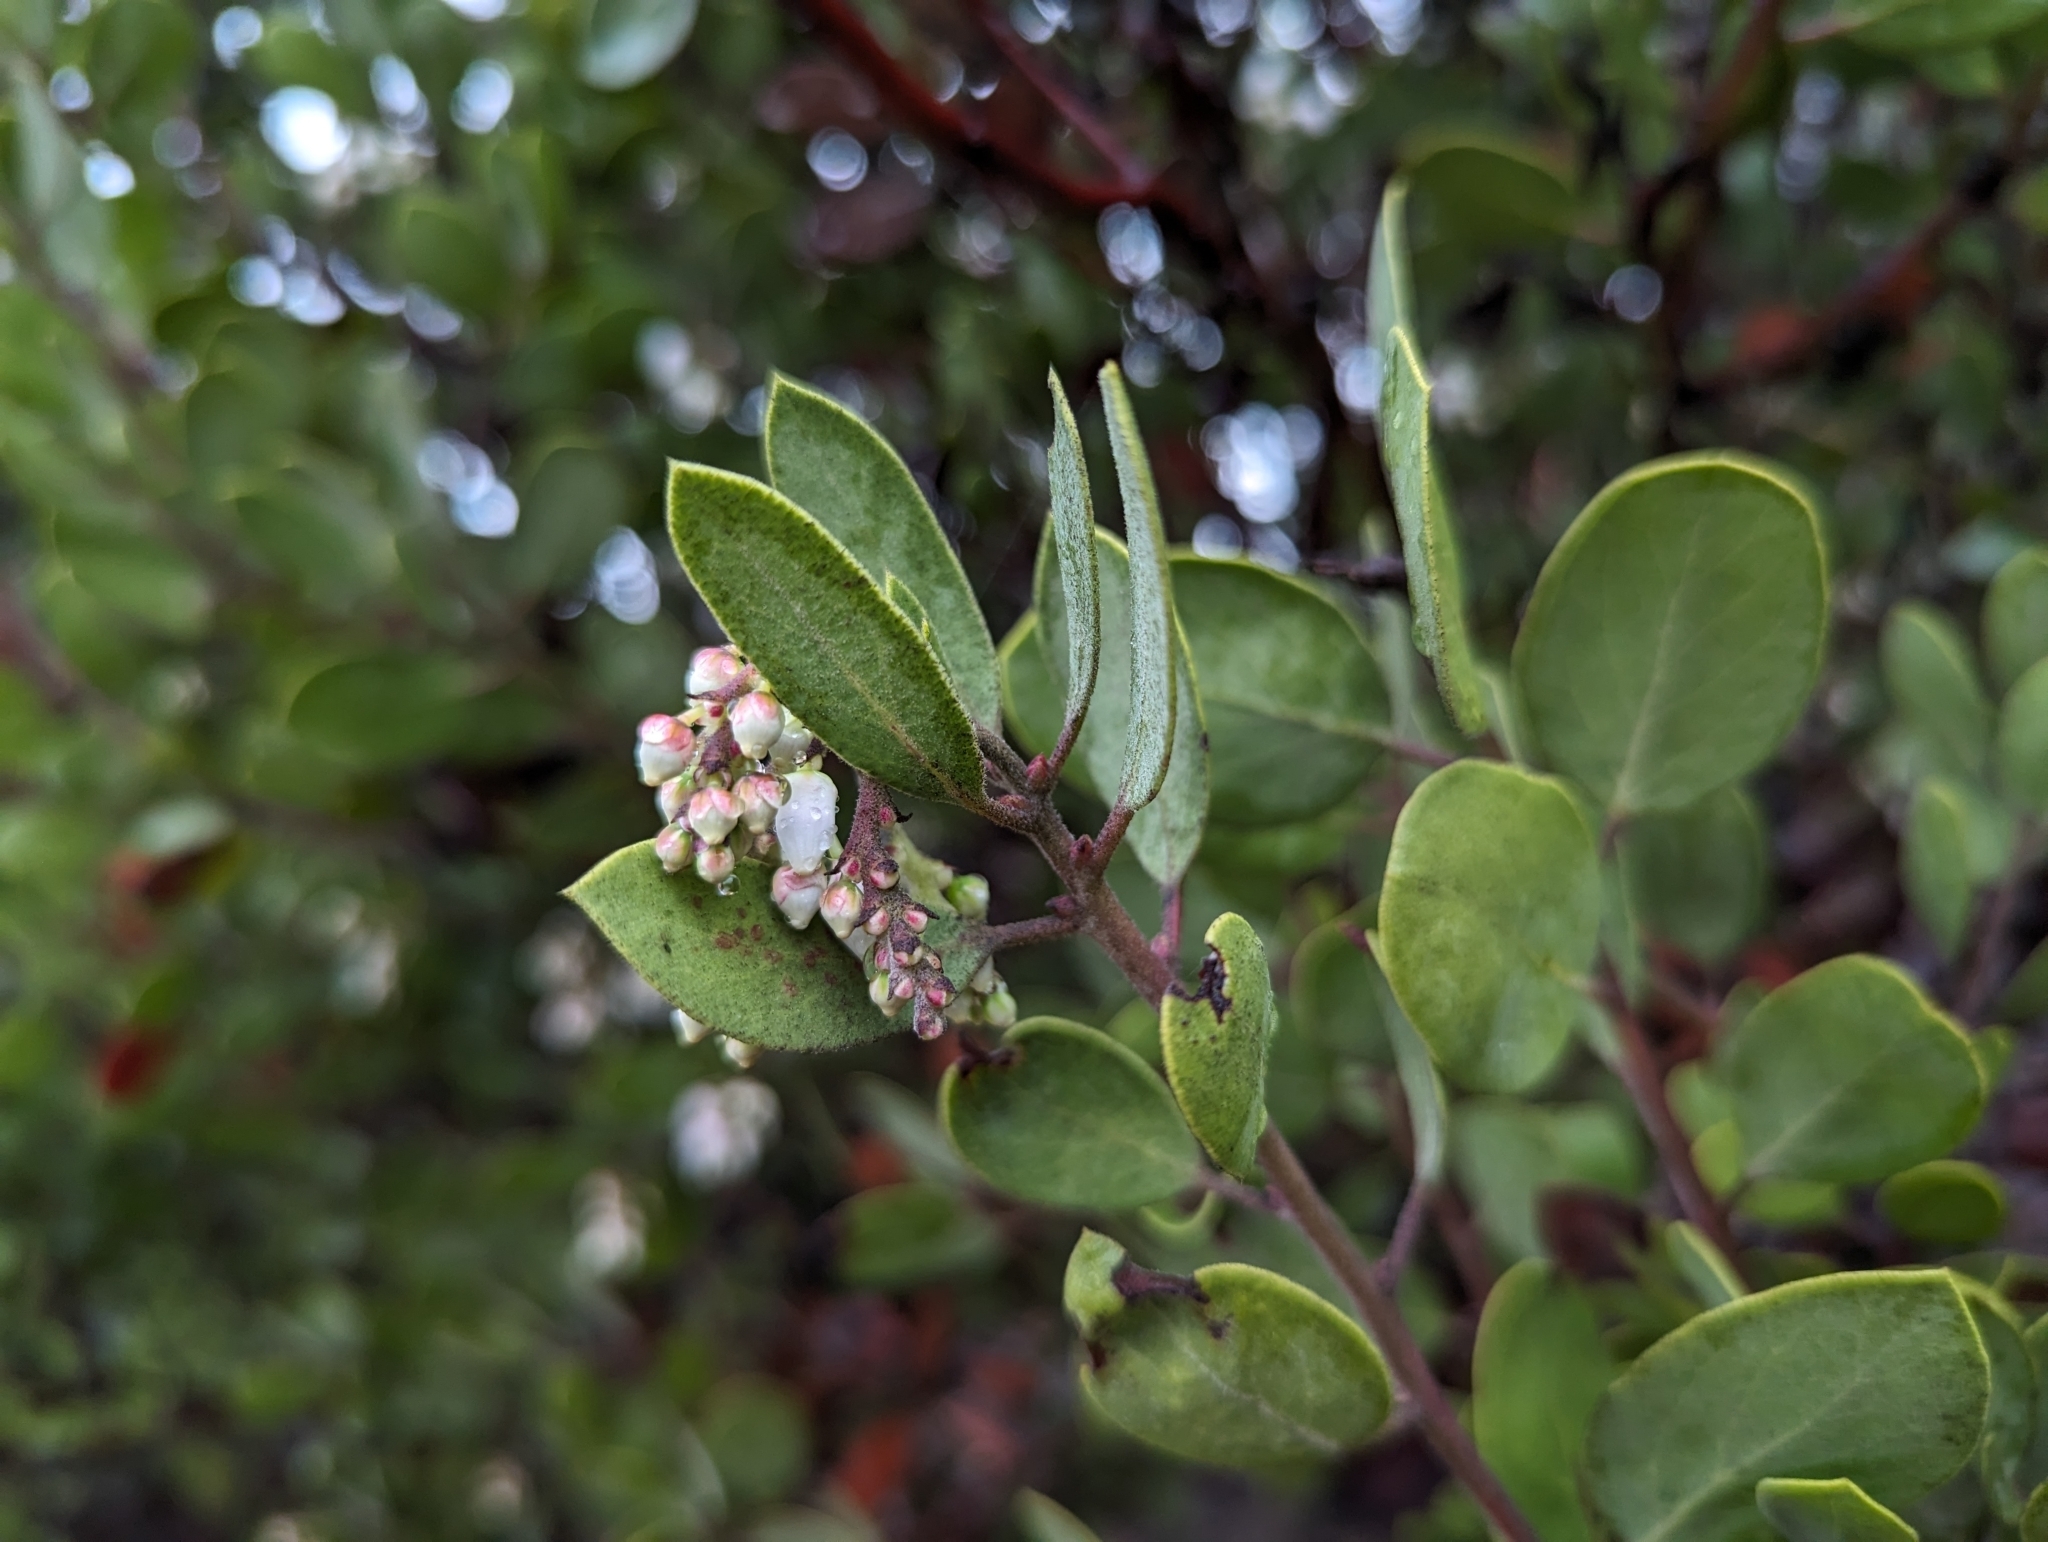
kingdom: Plantae
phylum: Tracheophyta
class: Magnoliopsida
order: Ericales
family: Ericaceae
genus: Arctostaphylos
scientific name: Arctostaphylos manzanita
